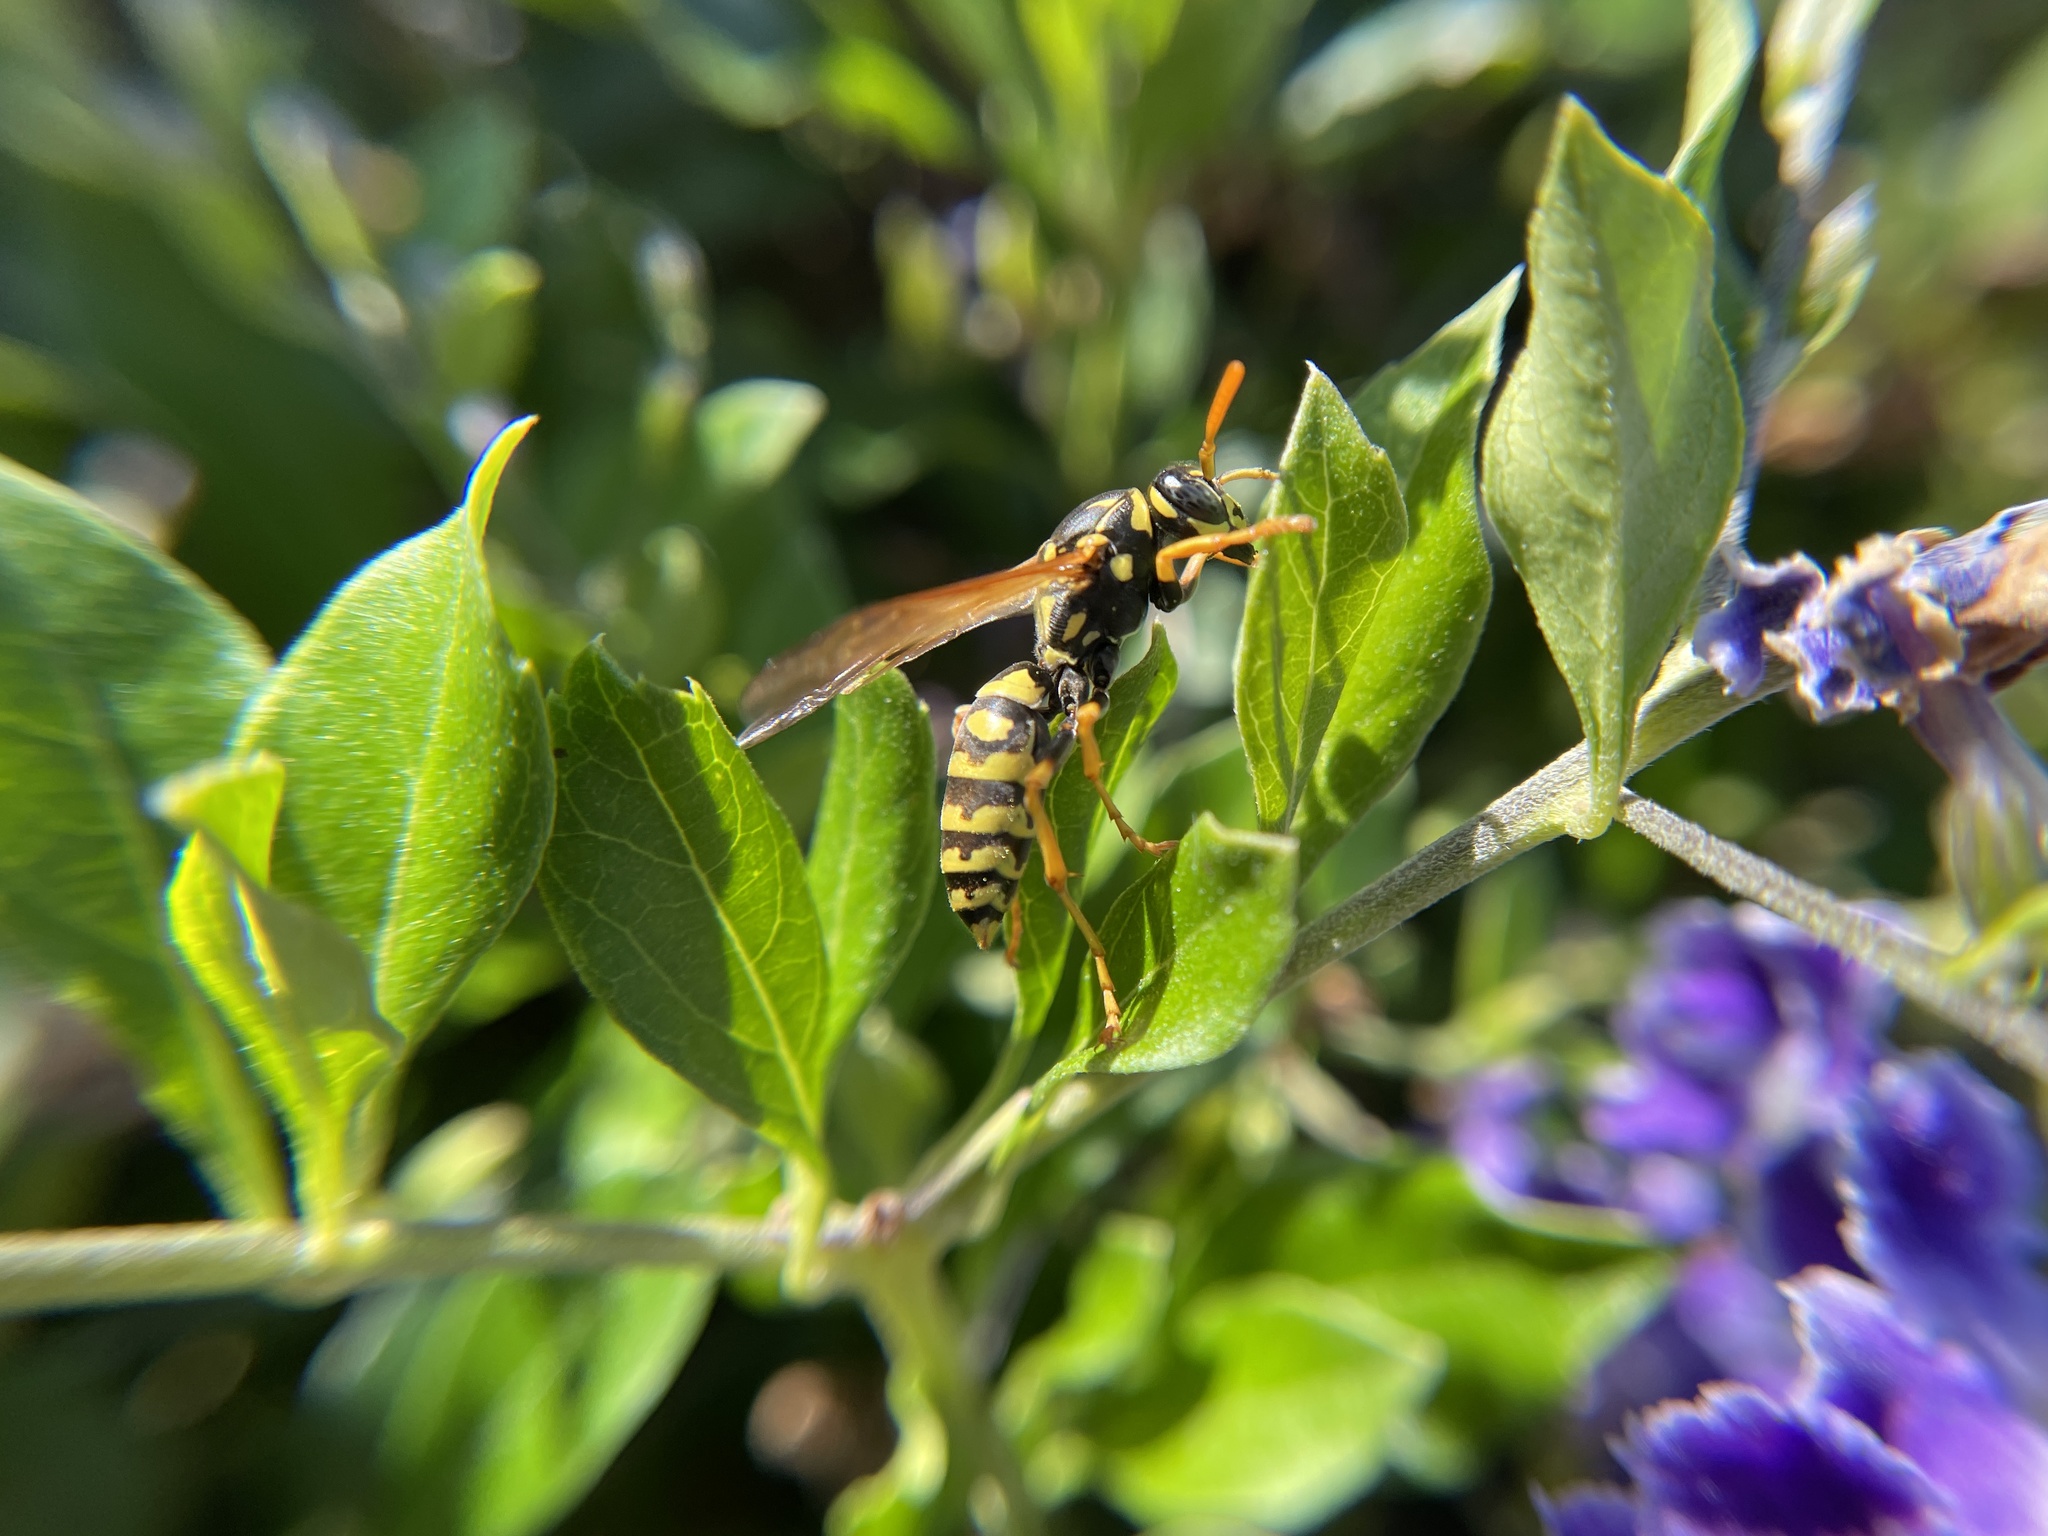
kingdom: Animalia
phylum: Arthropoda
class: Insecta
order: Hymenoptera
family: Eumenidae
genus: Polistes
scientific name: Polistes dominula
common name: Paper wasp
